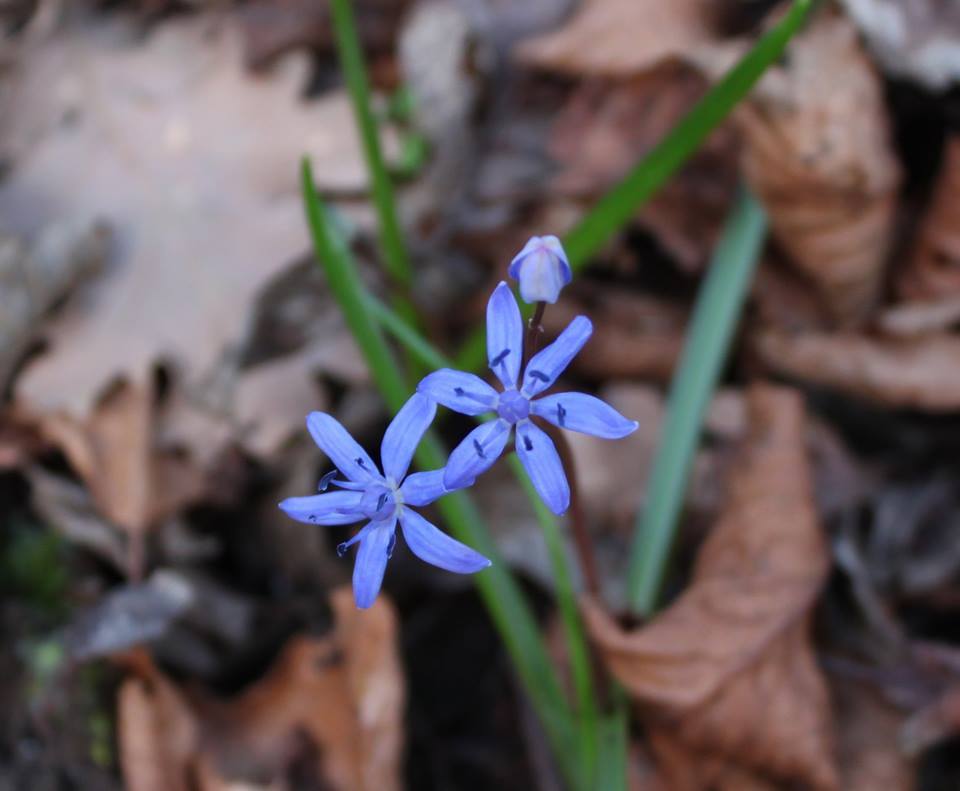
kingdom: Plantae
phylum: Tracheophyta
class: Liliopsida
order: Asparagales
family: Asparagaceae
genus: Scilla
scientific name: Scilla bifolia
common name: Alpine squill
